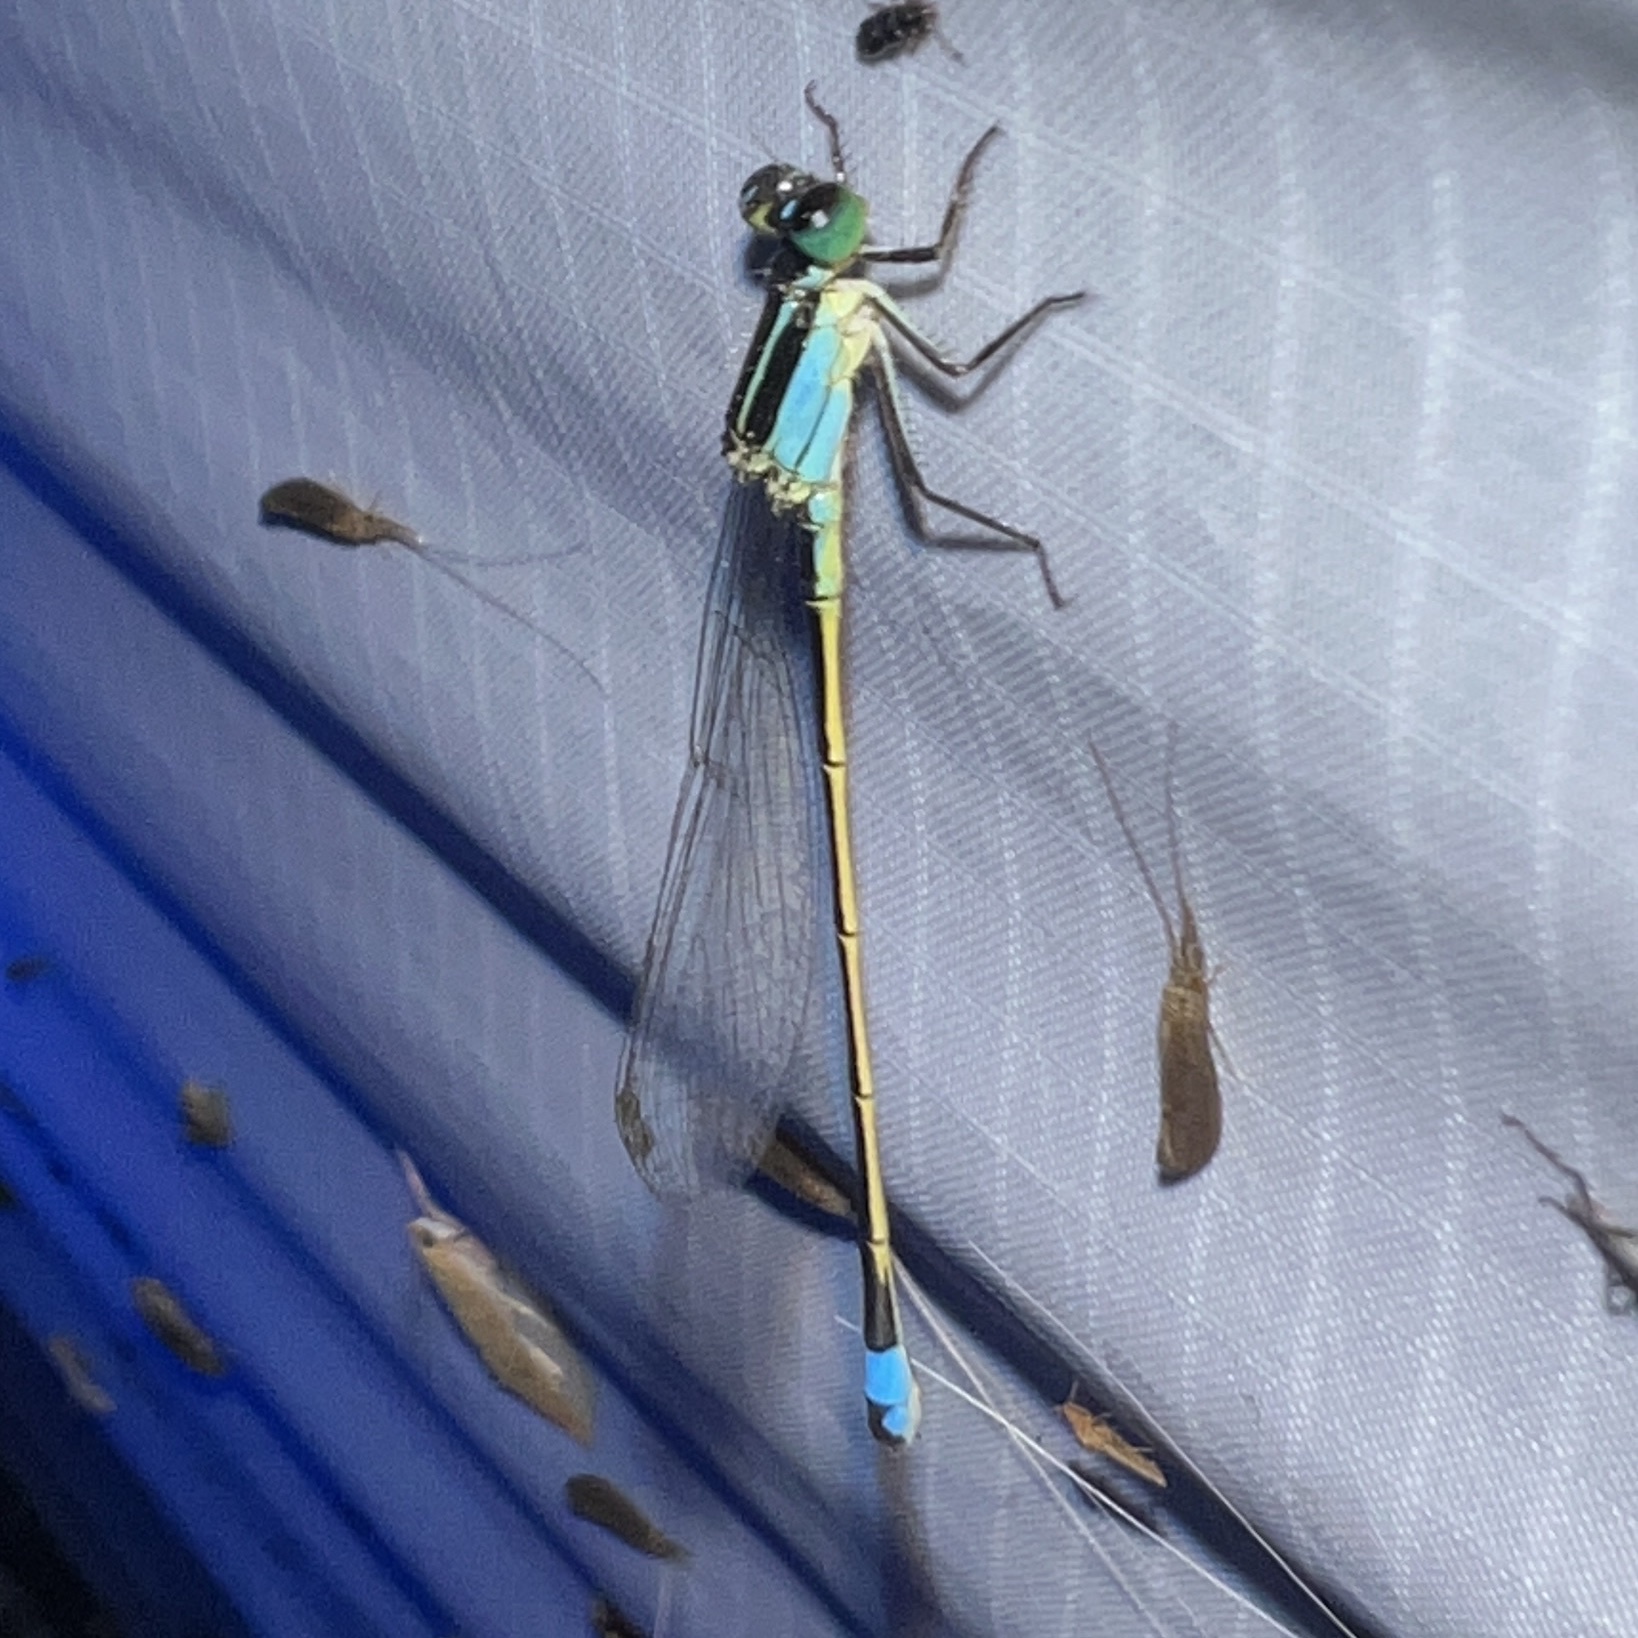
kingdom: Animalia
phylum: Arthropoda
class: Insecta
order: Odonata
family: Coenagrionidae
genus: Ischnura
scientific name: Ischnura ramburii
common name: Rambur's forktail
